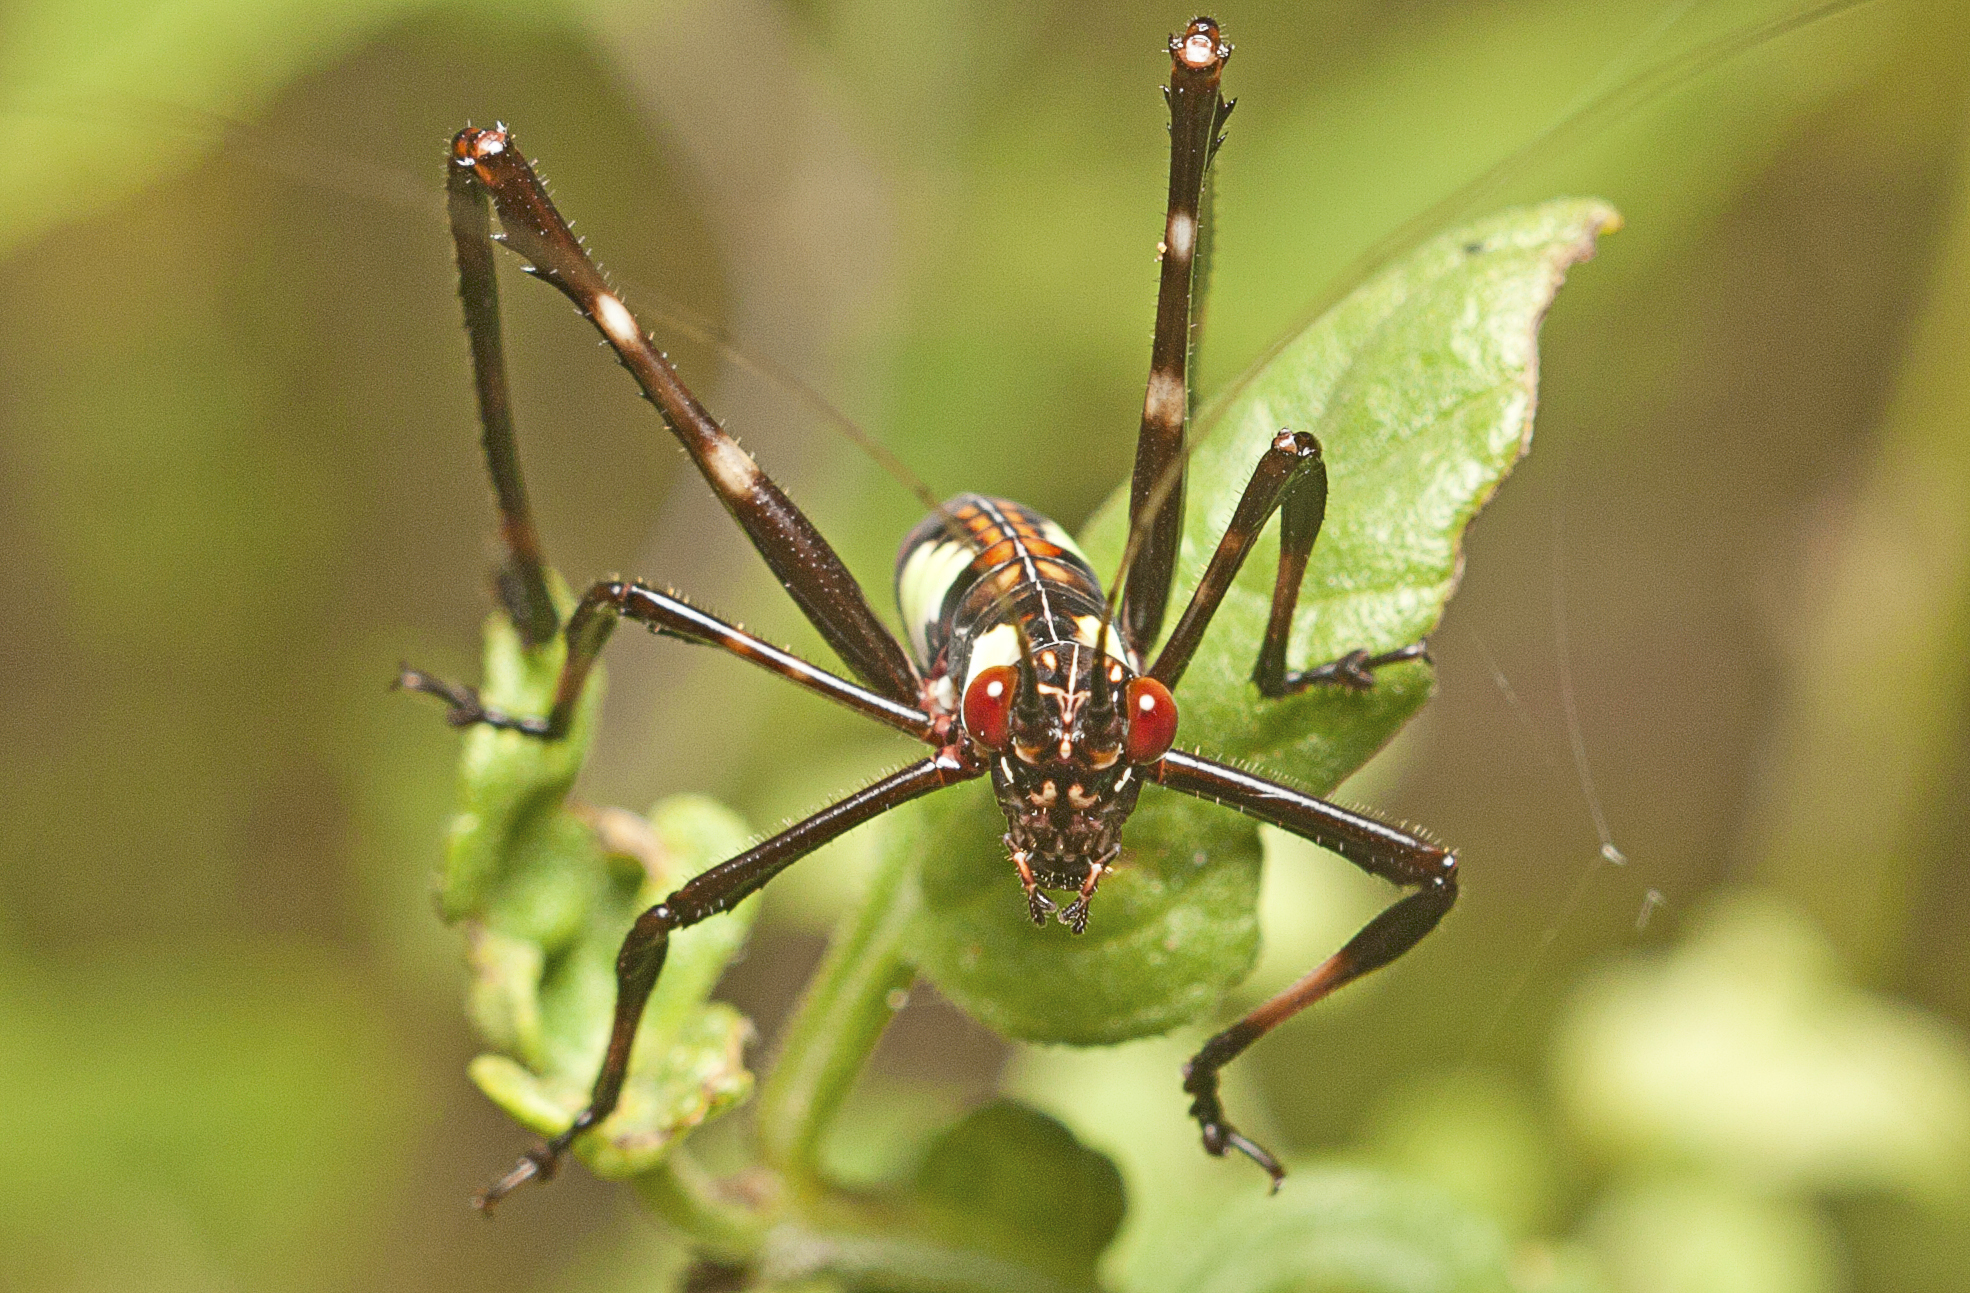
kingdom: Animalia
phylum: Arthropoda
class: Insecta
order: Orthoptera
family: Tettigoniidae
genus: Ephippitytha
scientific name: Ephippitytha trigintiduoguttata
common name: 32-spotted katydid
